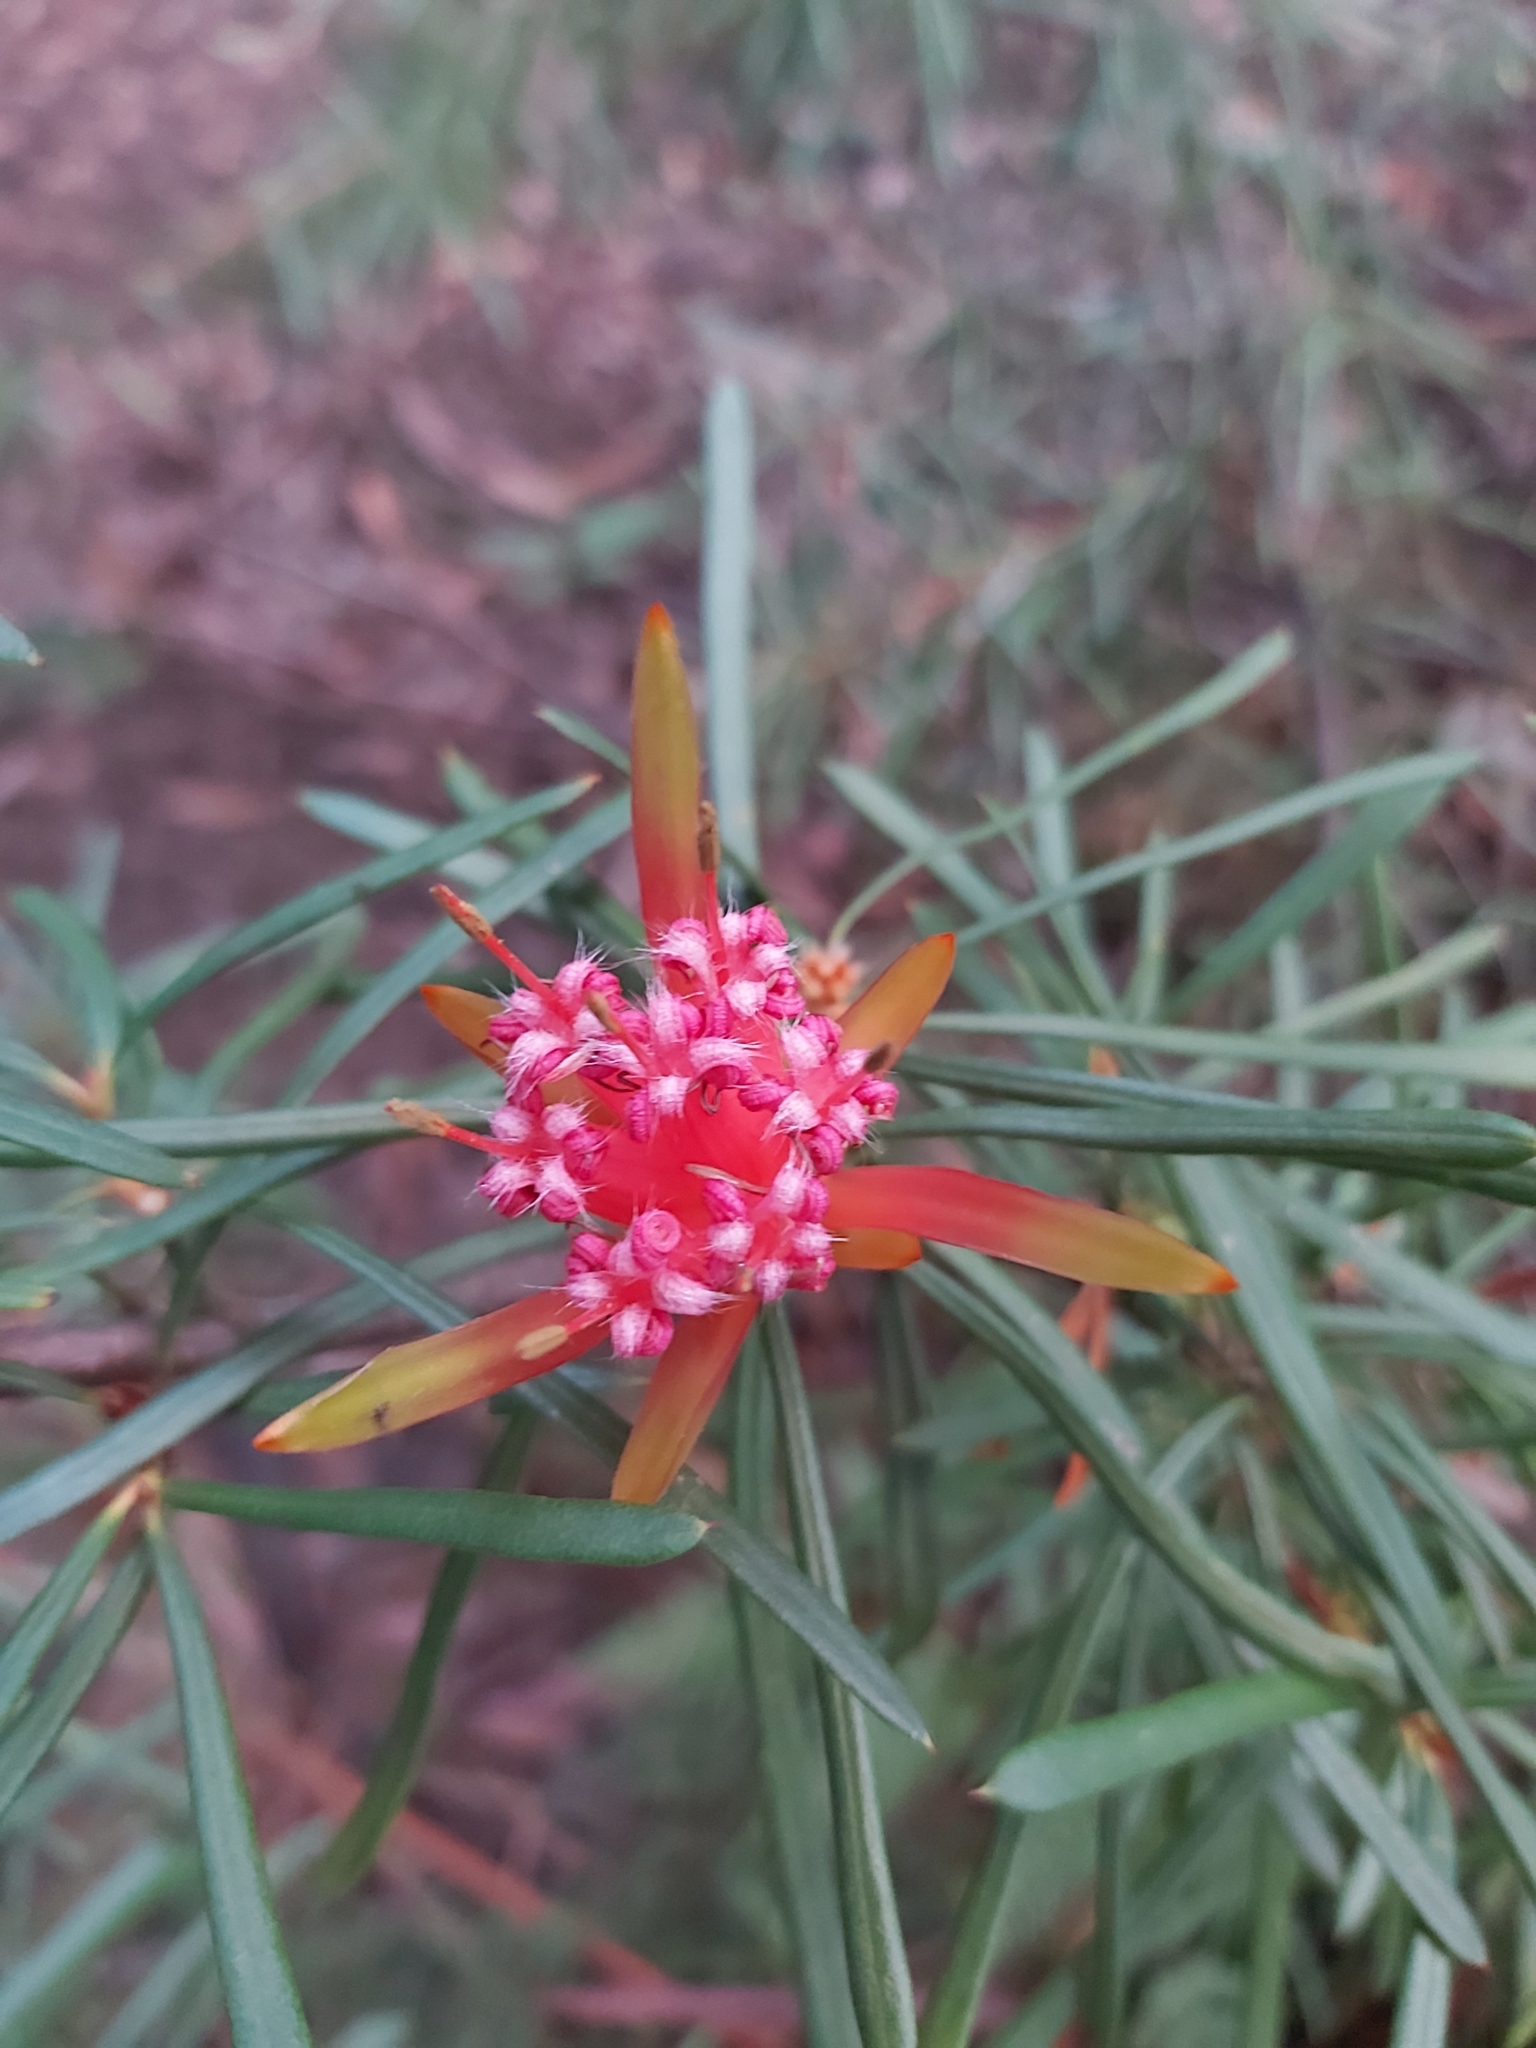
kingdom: Plantae
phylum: Tracheophyta
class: Magnoliopsida
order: Proteales
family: Proteaceae
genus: Lambertia
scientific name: Lambertia formosa
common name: Mountain-devil
